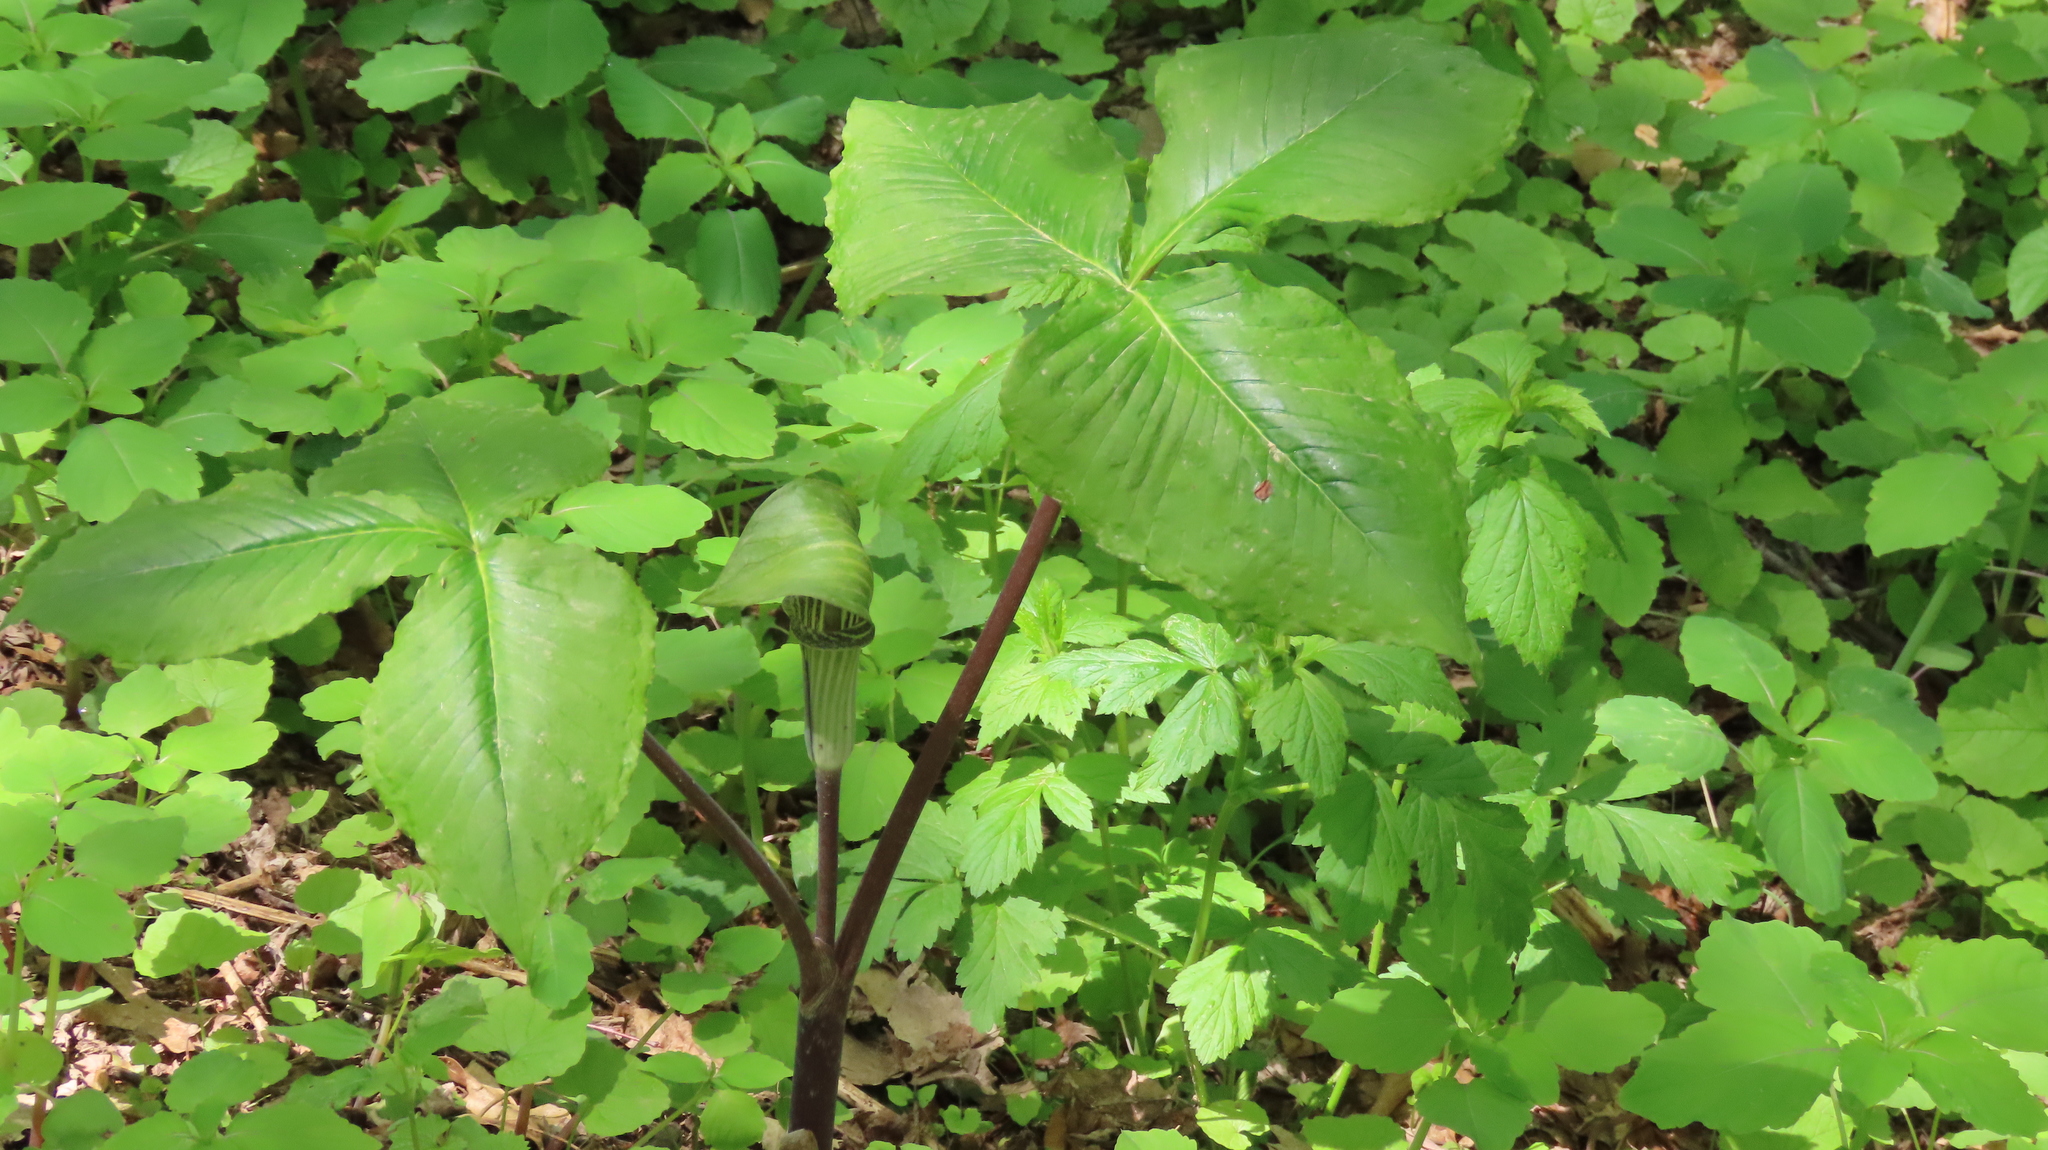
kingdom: Plantae
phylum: Tracheophyta
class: Liliopsida
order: Alismatales
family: Araceae
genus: Arisaema
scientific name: Arisaema triphyllum
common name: Jack-in-the-pulpit
